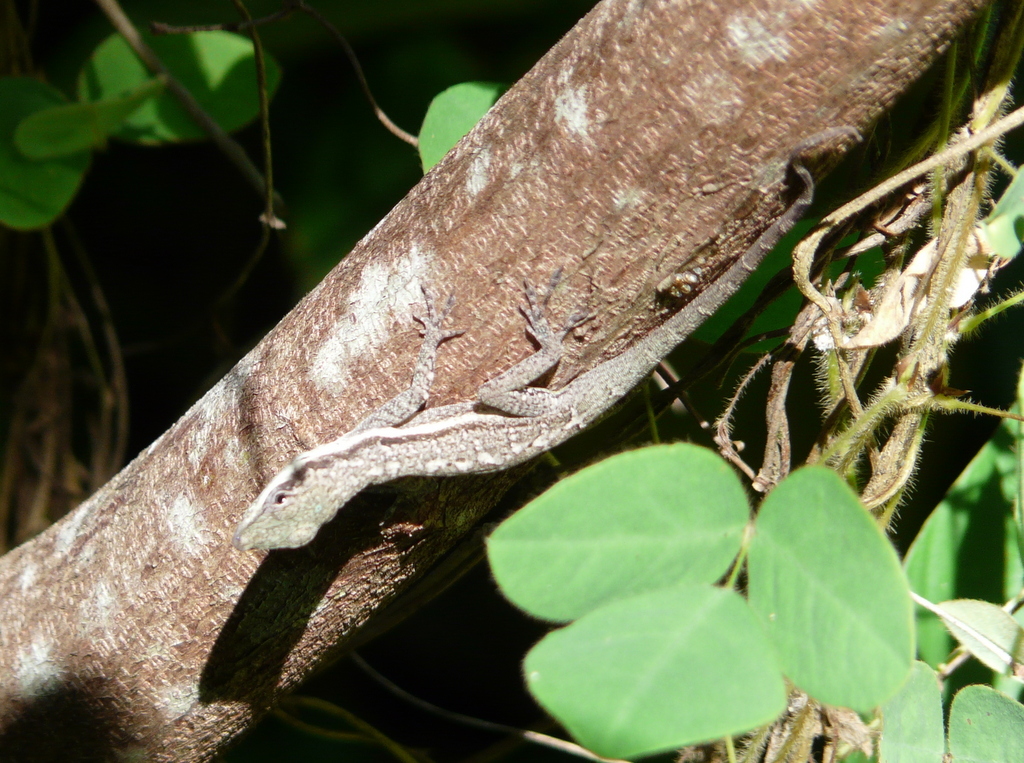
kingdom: Animalia
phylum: Chordata
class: Squamata
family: Dactyloidae
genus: Anolis
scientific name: Anolis opalinus
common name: Bluefields anole
